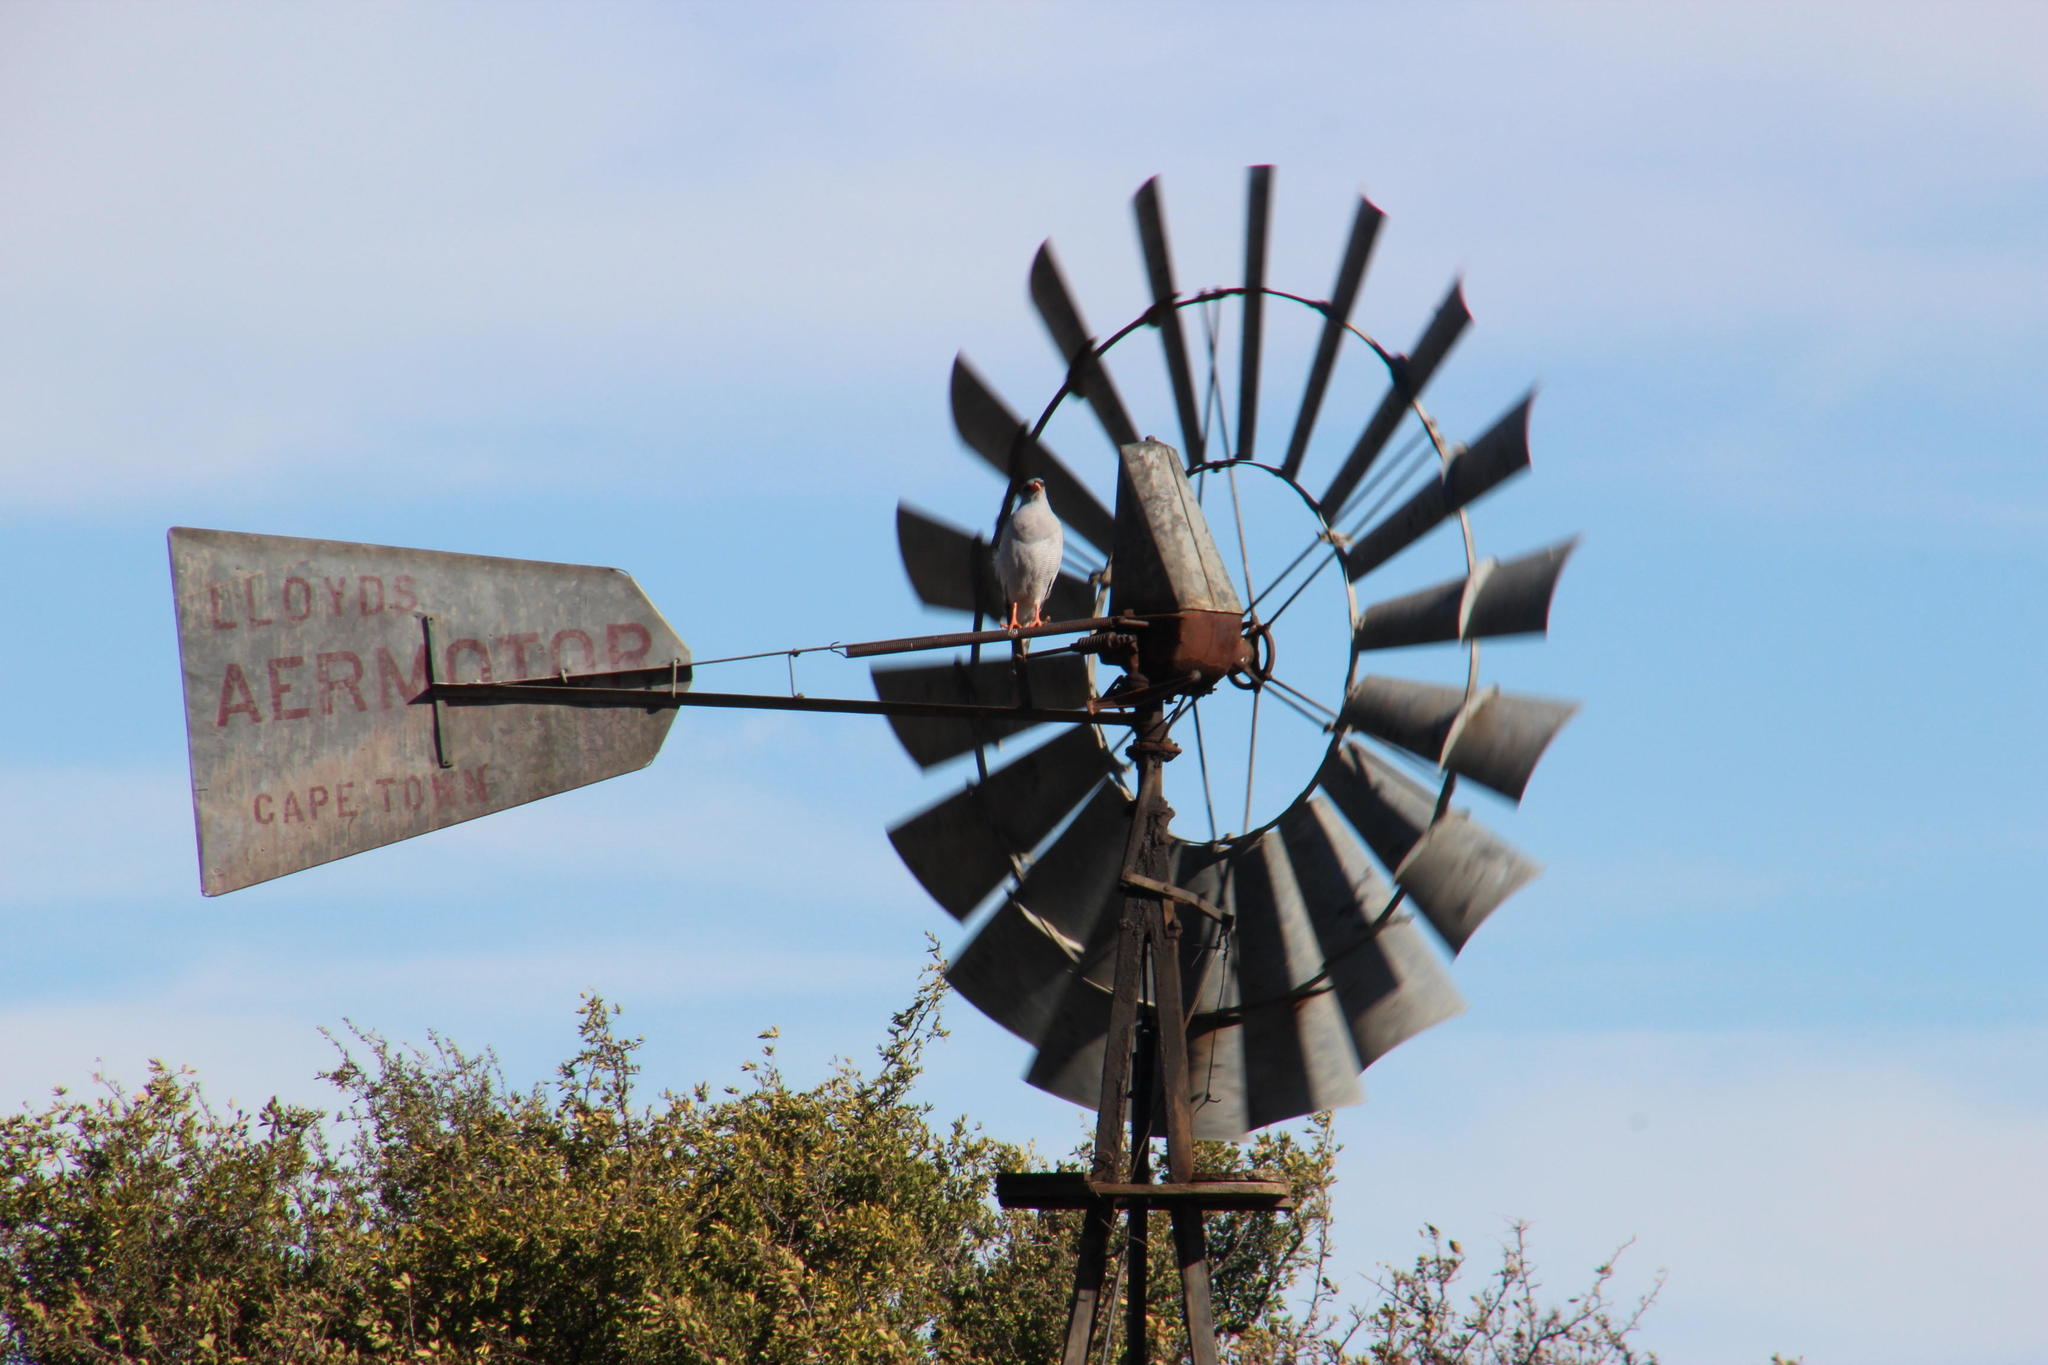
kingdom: Animalia
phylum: Chordata
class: Aves
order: Accipitriformes
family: Accipitridae
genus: Melierax
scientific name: Melierax canorus
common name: Pale chanting-goshawk
